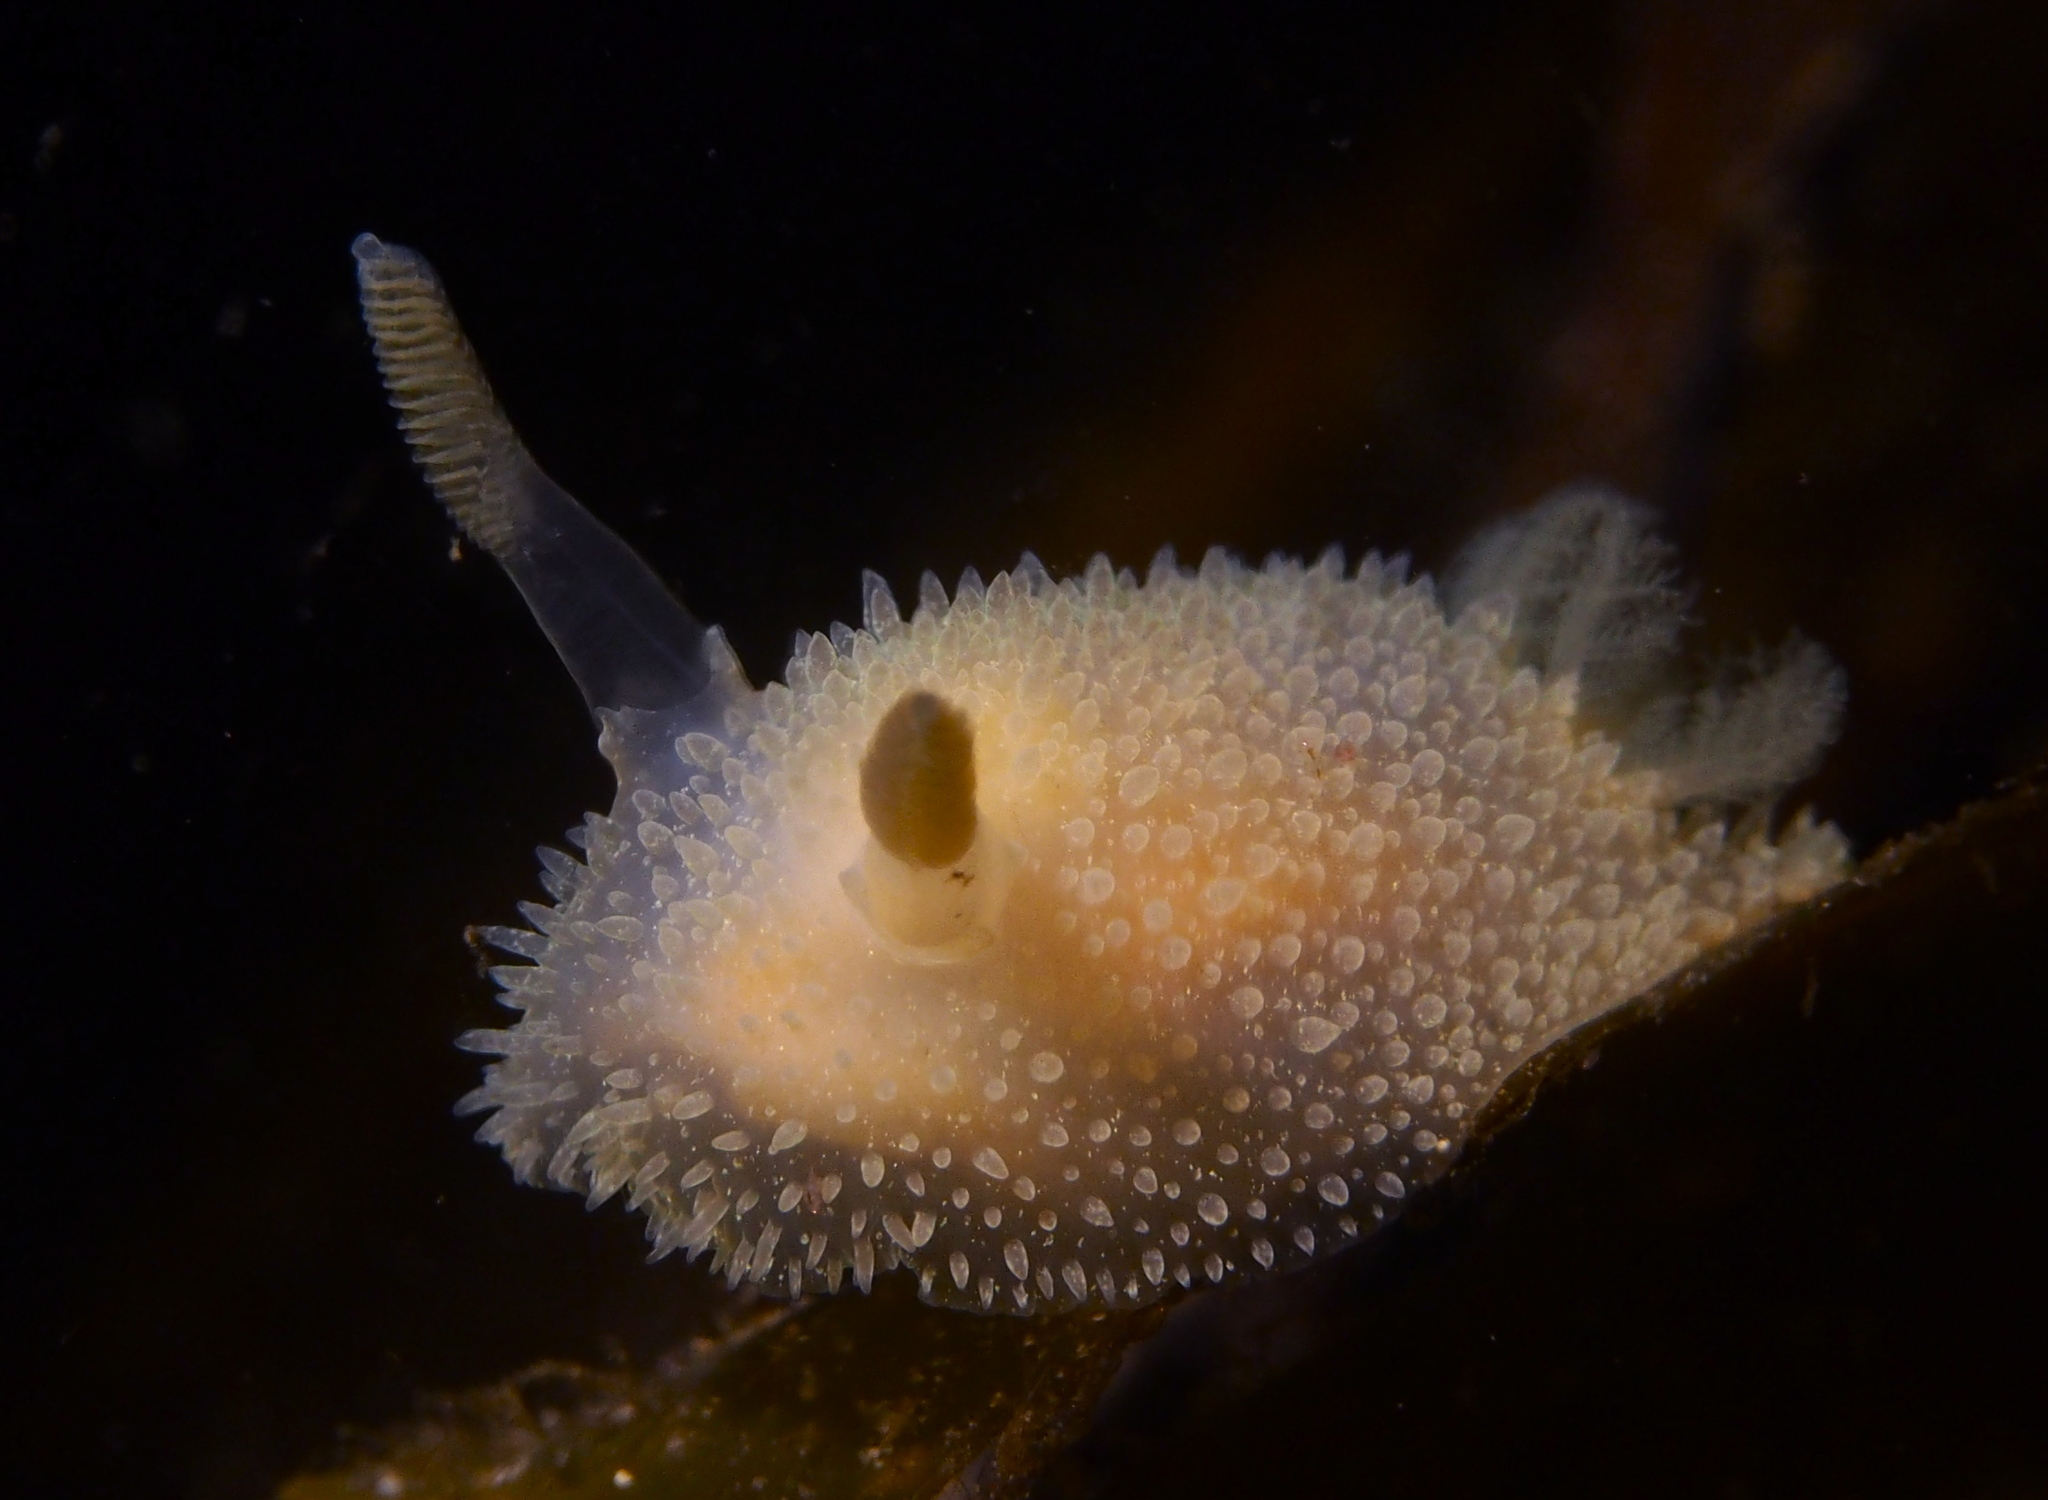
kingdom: Animalia
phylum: Mollusca
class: Gastropoda
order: Nudibranchia
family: Onchidorididae
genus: Acanthodoris
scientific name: Acanthodoris pilosa
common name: Hairy spiny doris
